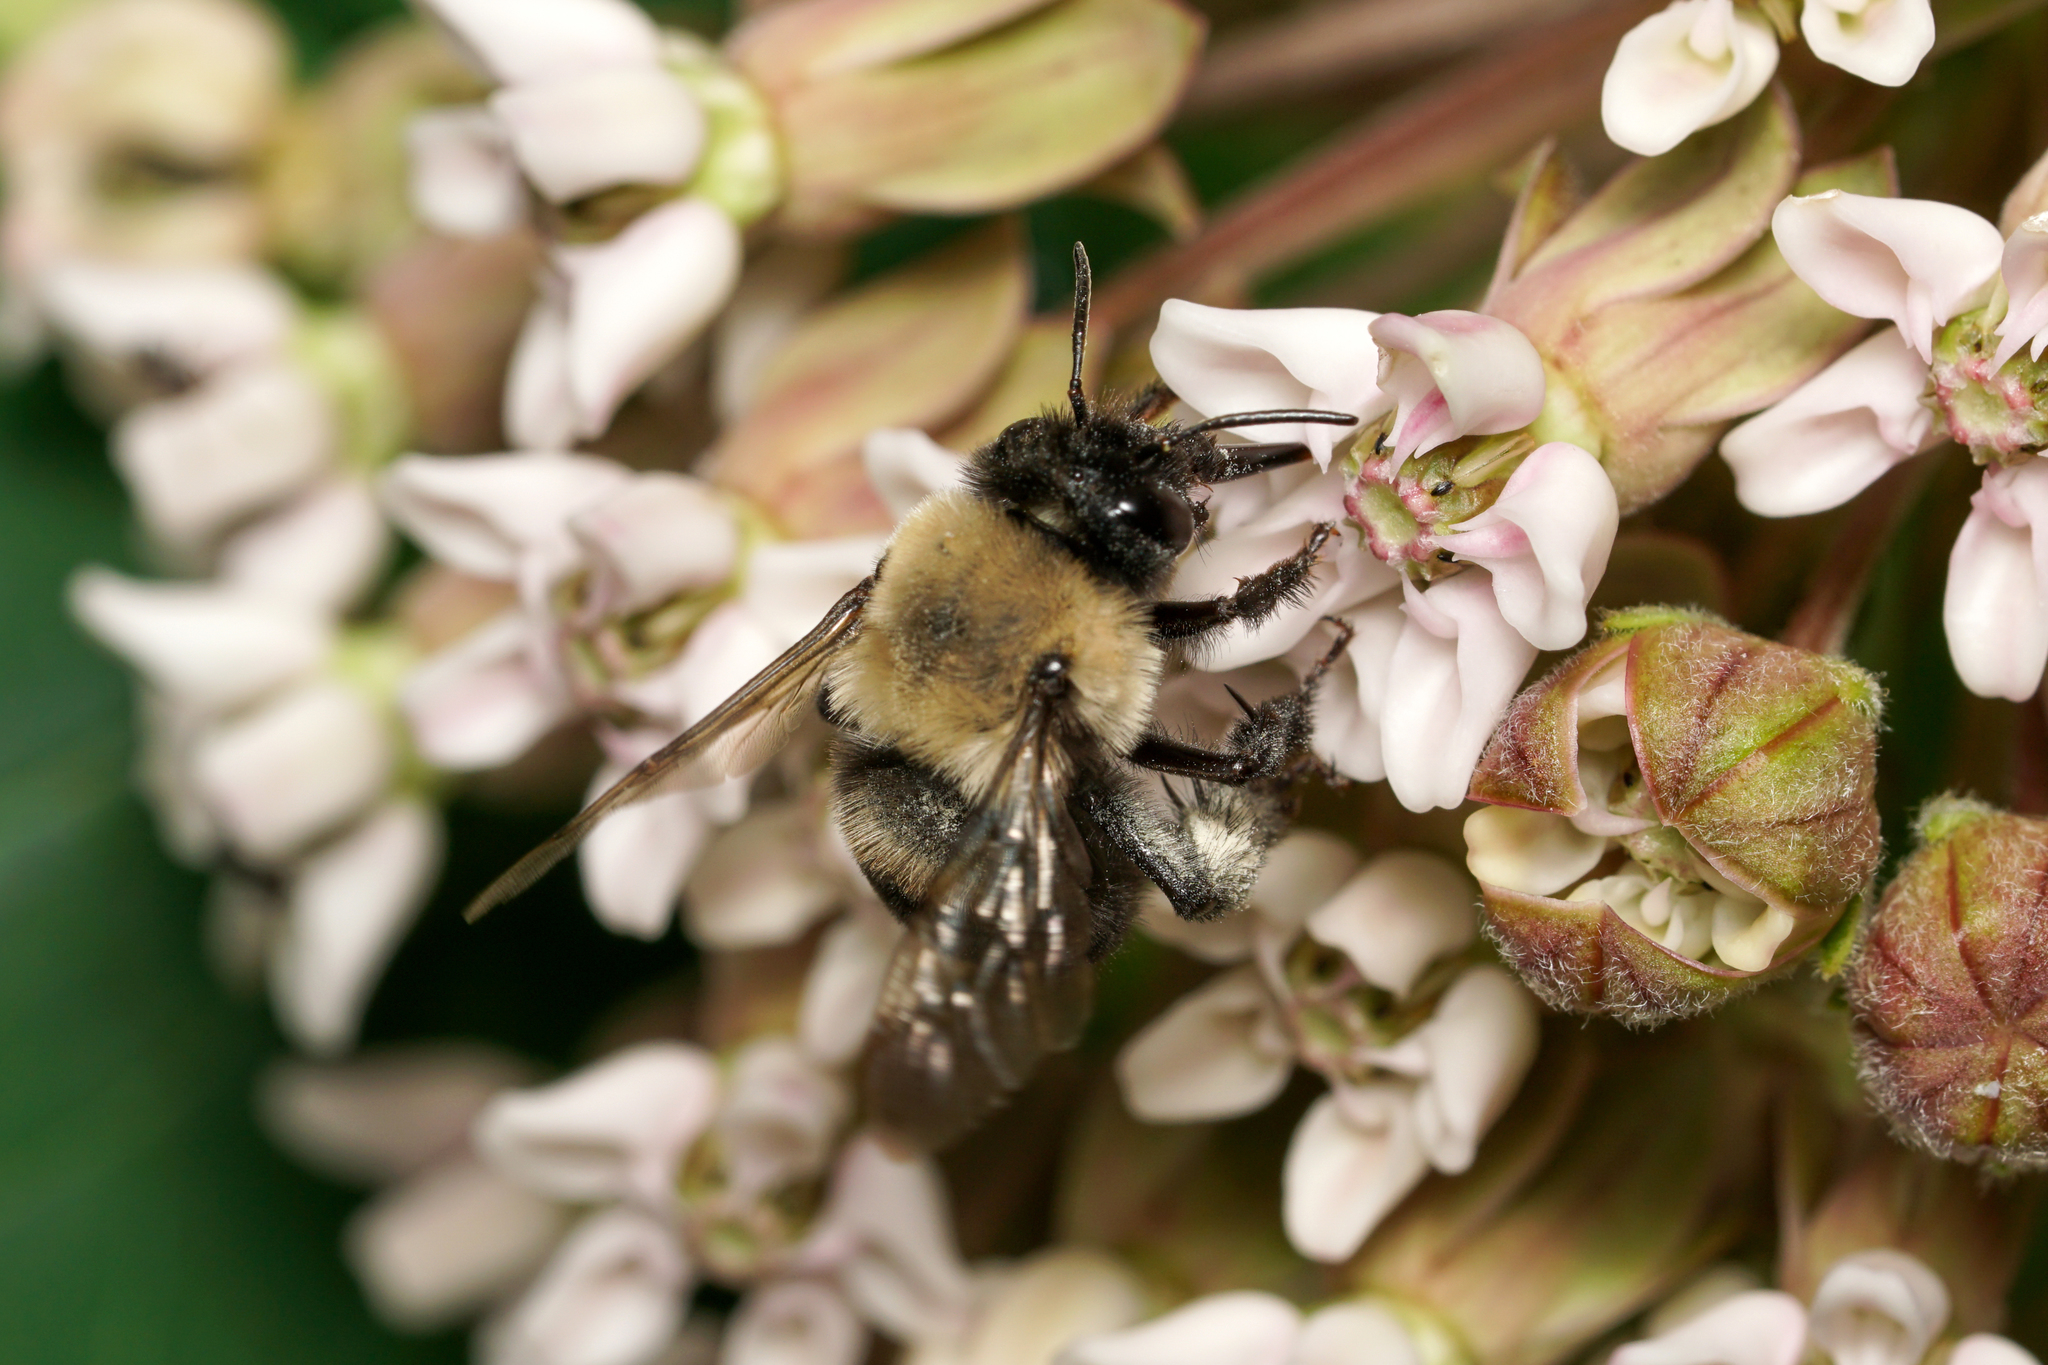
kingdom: Animalia
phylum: Arthropoda
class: Insecta
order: Hymenoptera
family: Apidae
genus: Anthophora
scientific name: Anthophora abrupta
